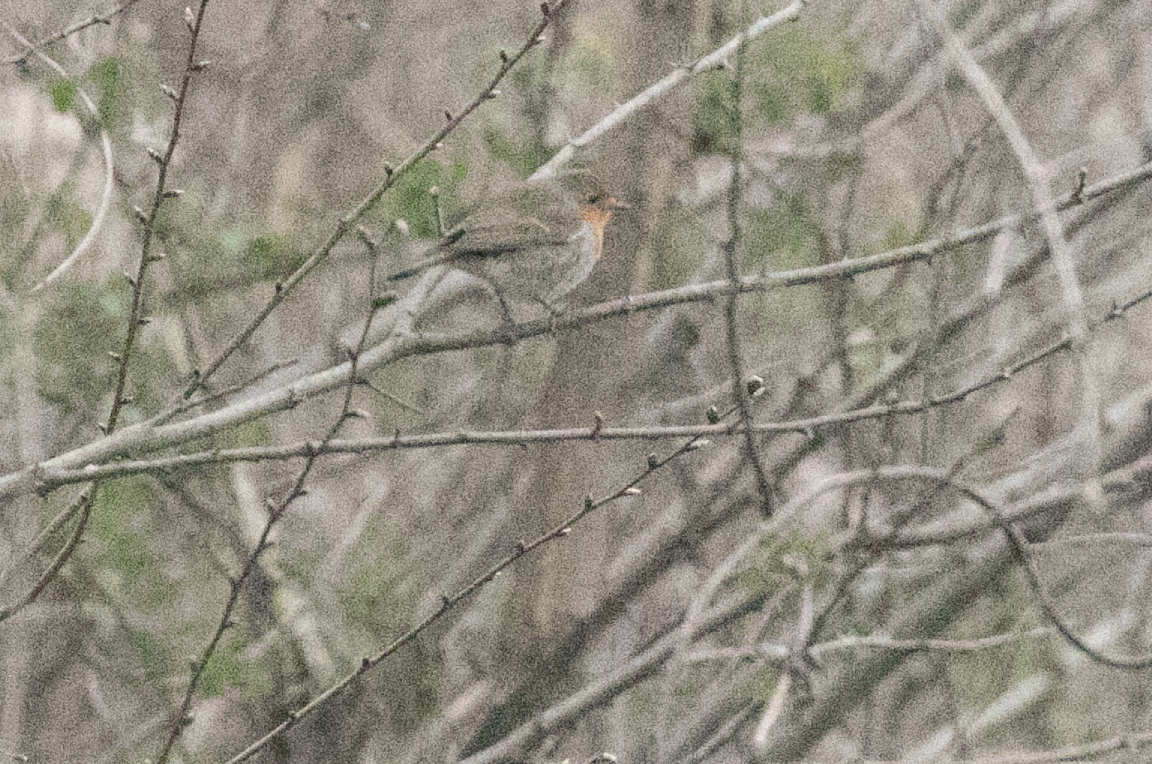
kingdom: Animalia
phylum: Chordata
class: Aves
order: Passeriformes
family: Muscicapidae
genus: Erithacus
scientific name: Erithacus rubecula
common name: European robin
